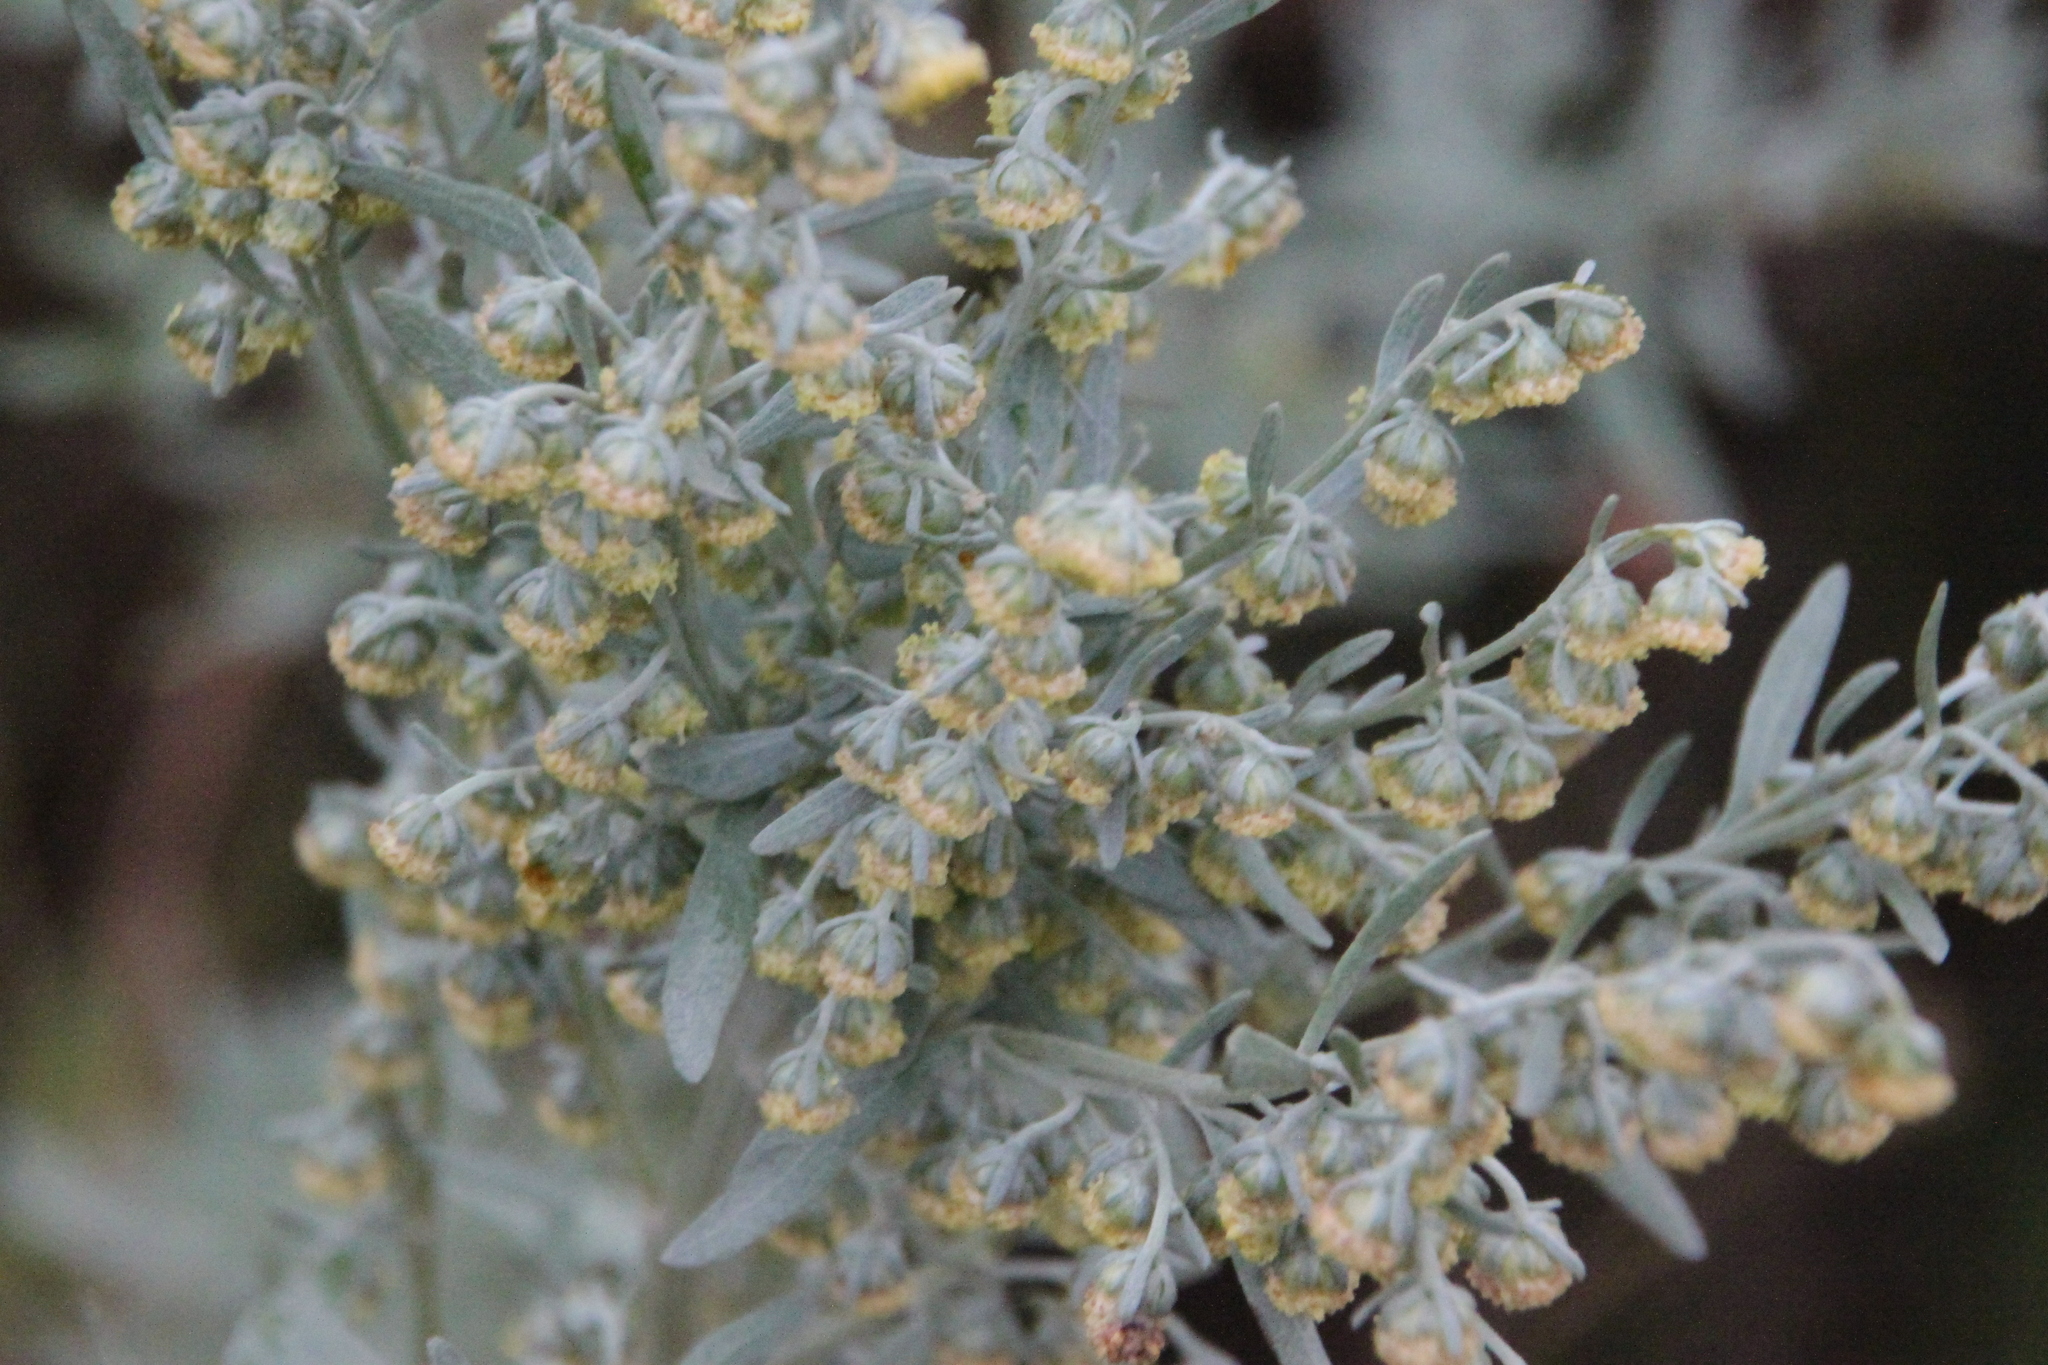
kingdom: Plantae
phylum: Tracheophyta
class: Magnoliopsida
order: Asterales
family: Asteraceae
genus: Artemisia
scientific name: Artemisia absinthium
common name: Wormwood
